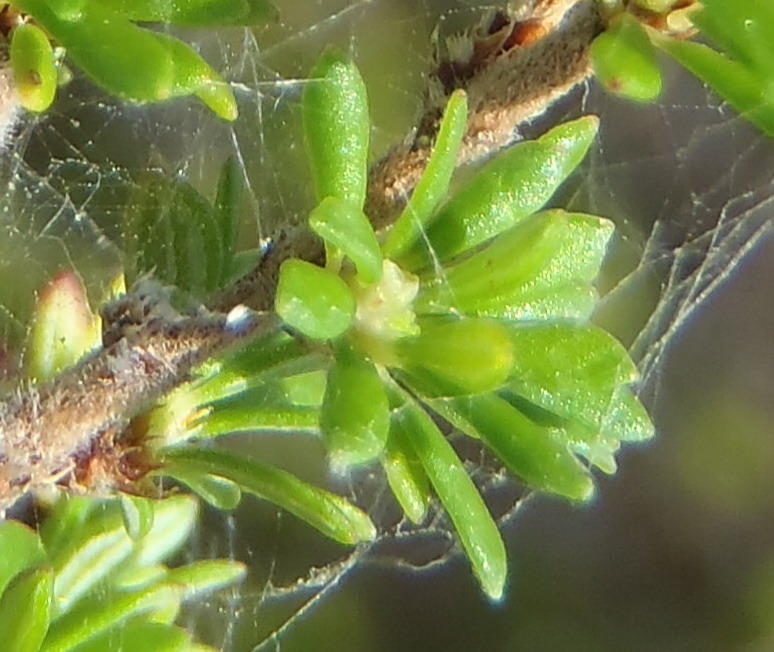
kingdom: Plantae
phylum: Tracheophyta
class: Magnoliopsida
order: Rosales
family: Rosaceae
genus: Cliffortia
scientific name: Cliffortia serpyllifolia
